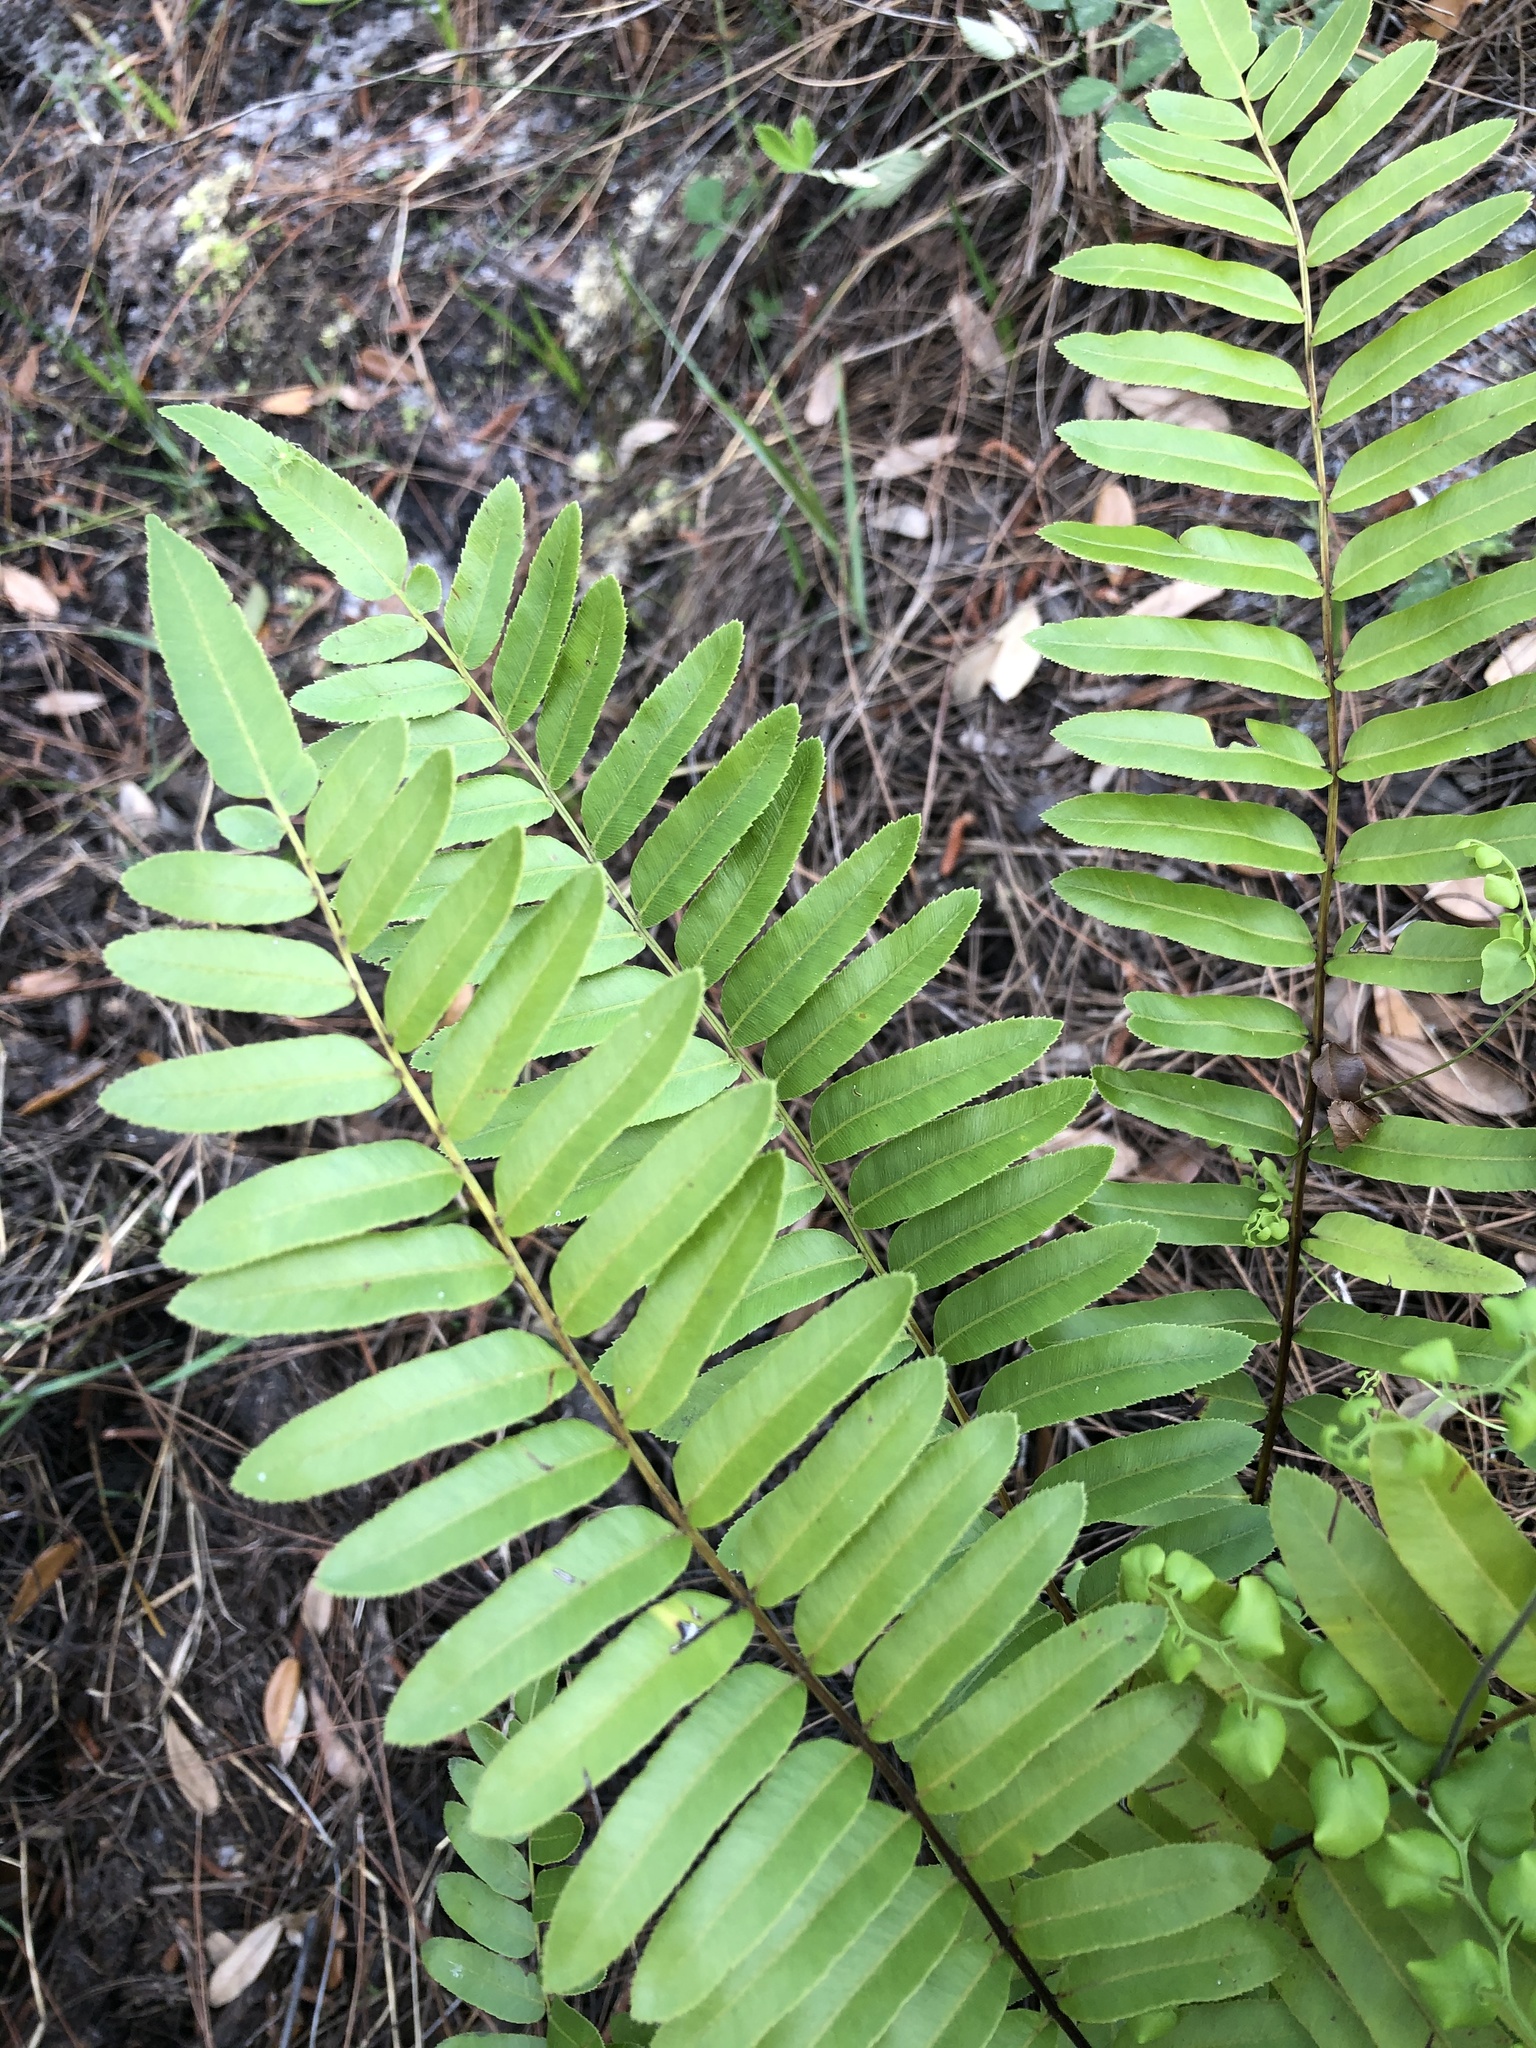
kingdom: Plantae
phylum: Tracheophyta
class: Polypodiopsida
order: Polypodiales
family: Blechnaceae
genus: Telmatoblechnum
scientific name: Telmatoblechnum serrulatum
